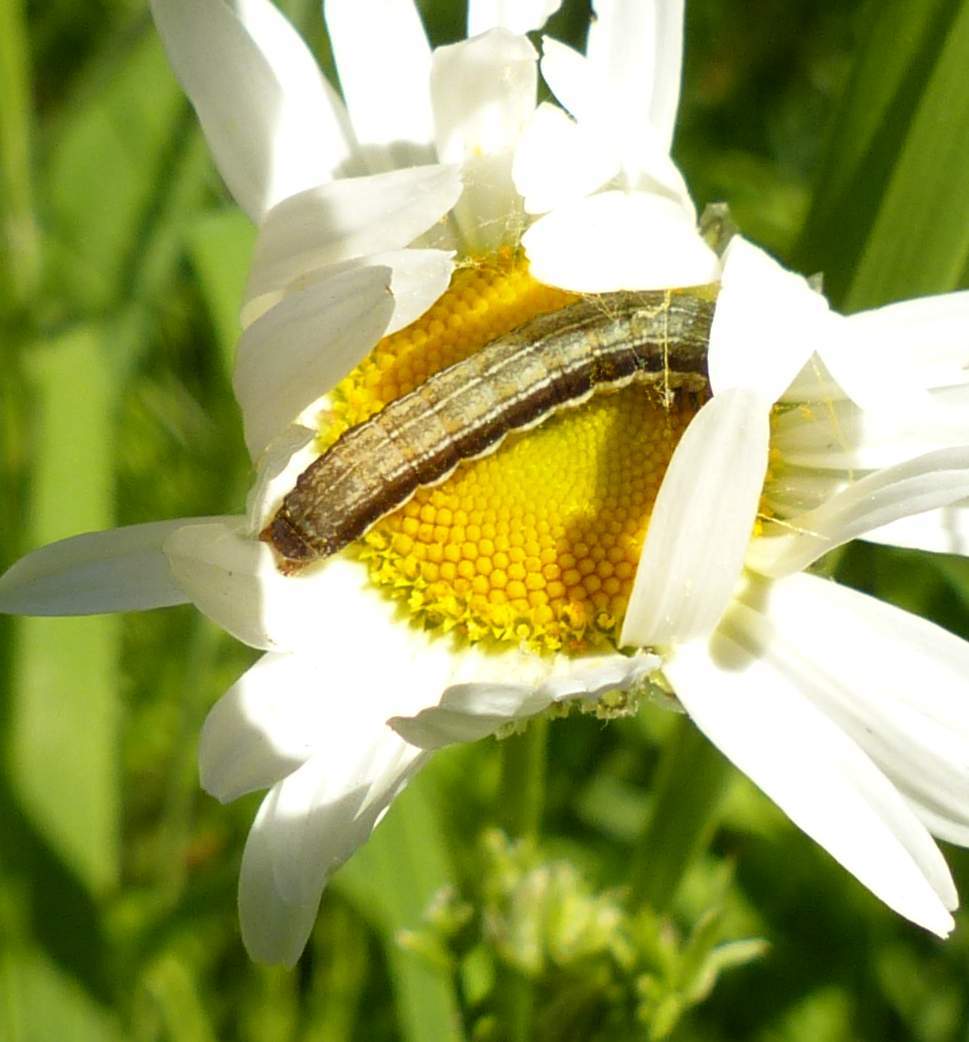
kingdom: Animalia
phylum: Arthropoda
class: Insecta
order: Lepidoptera
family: Noctuidae
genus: Eupsilia
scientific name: Eupsilia devia
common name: Lost sallow
